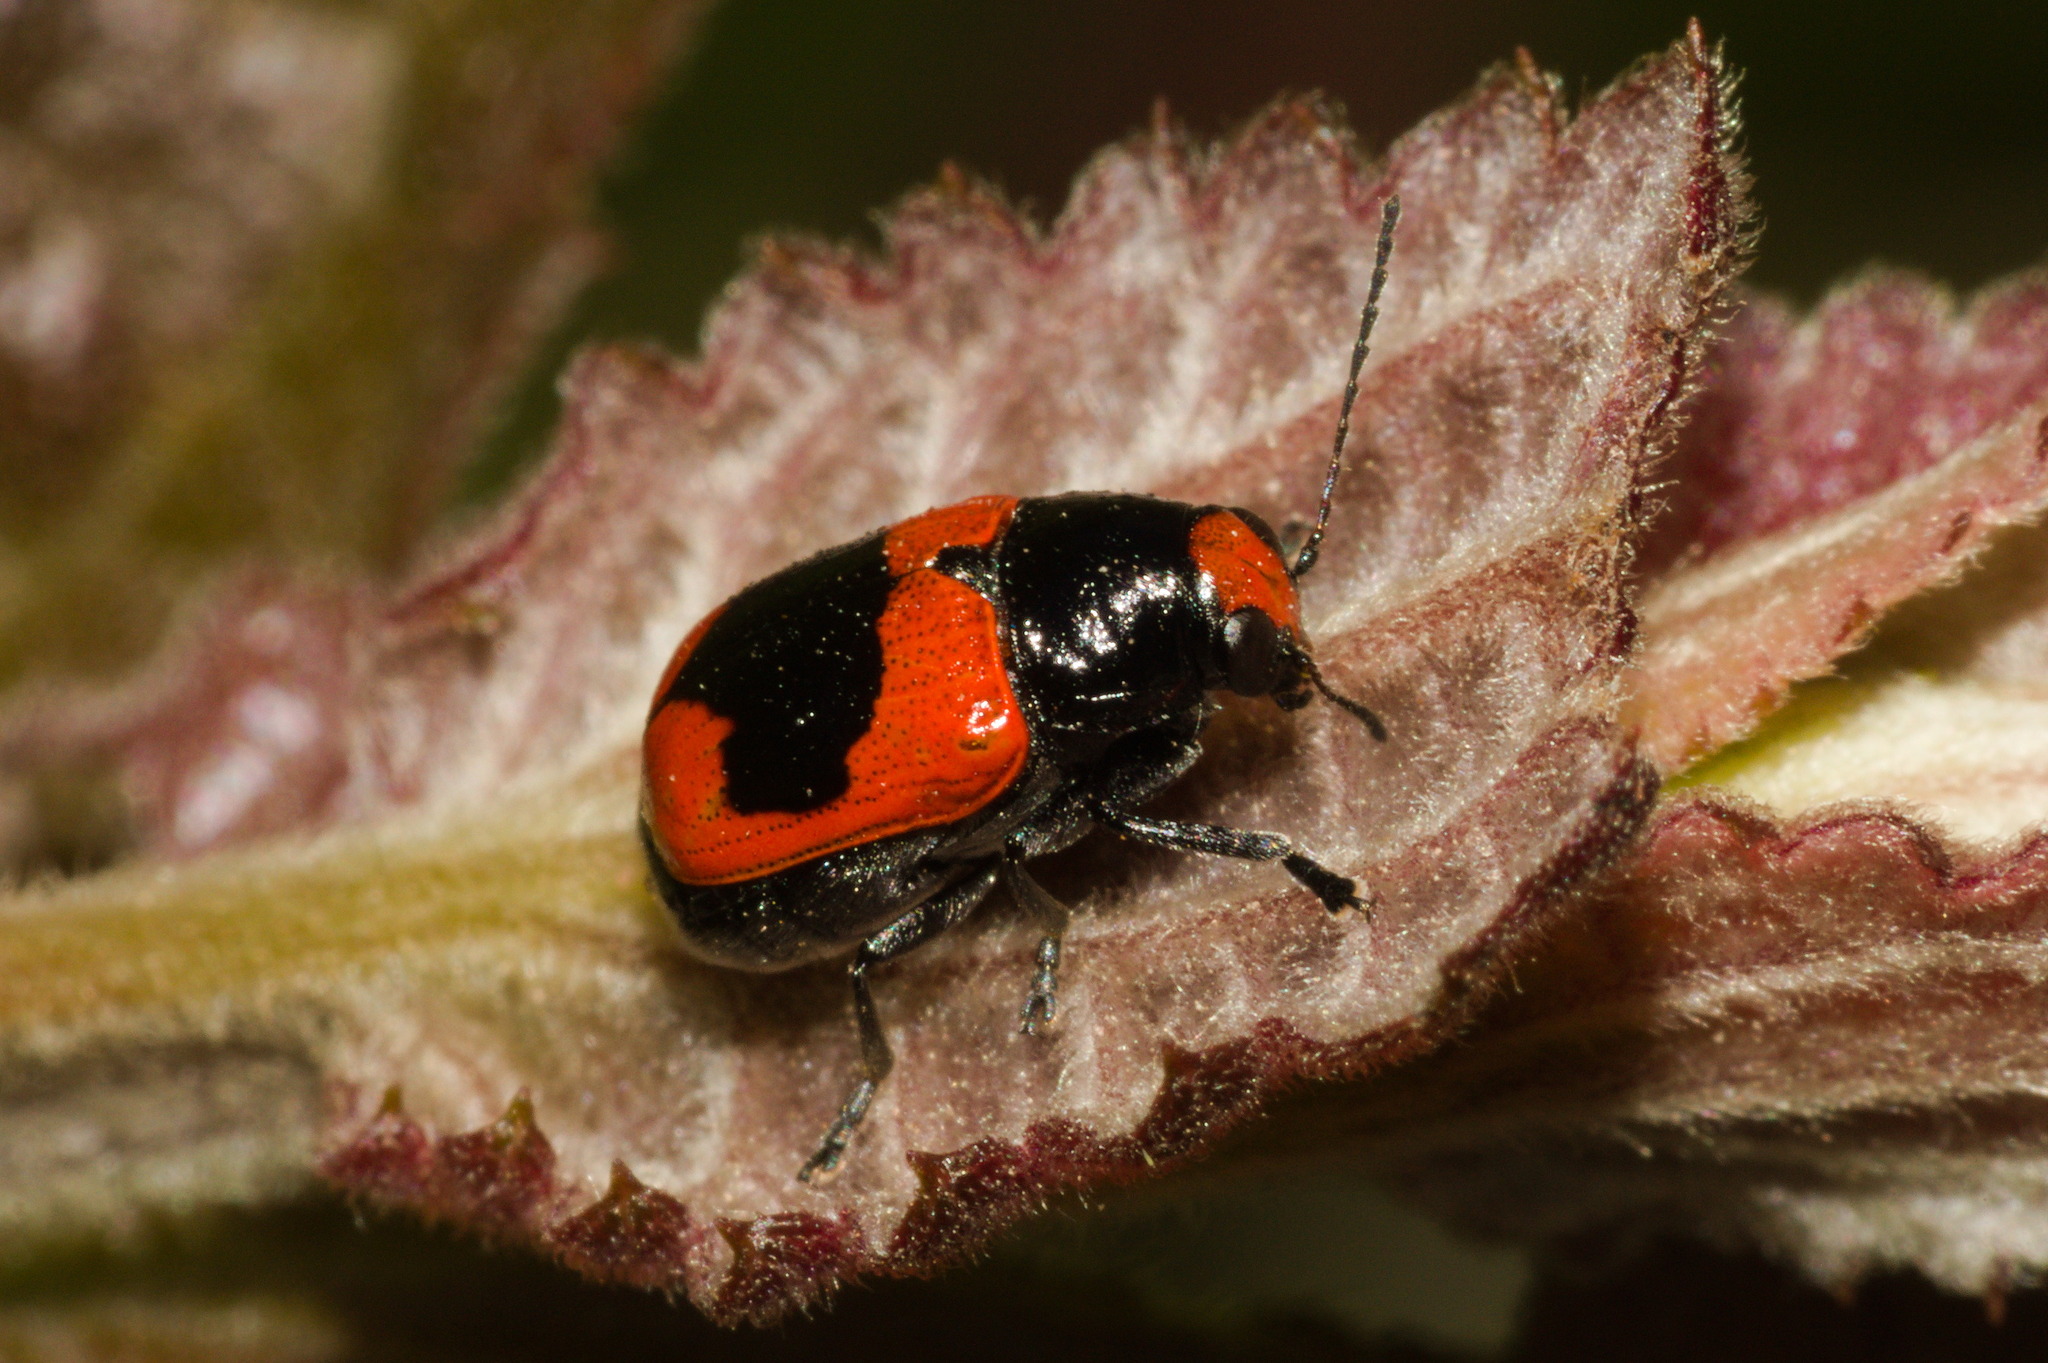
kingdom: Animalia
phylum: Arthropoda
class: Insecta
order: Coleoptera
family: Chrysomelidae
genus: Metallactus
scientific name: Metallactus
